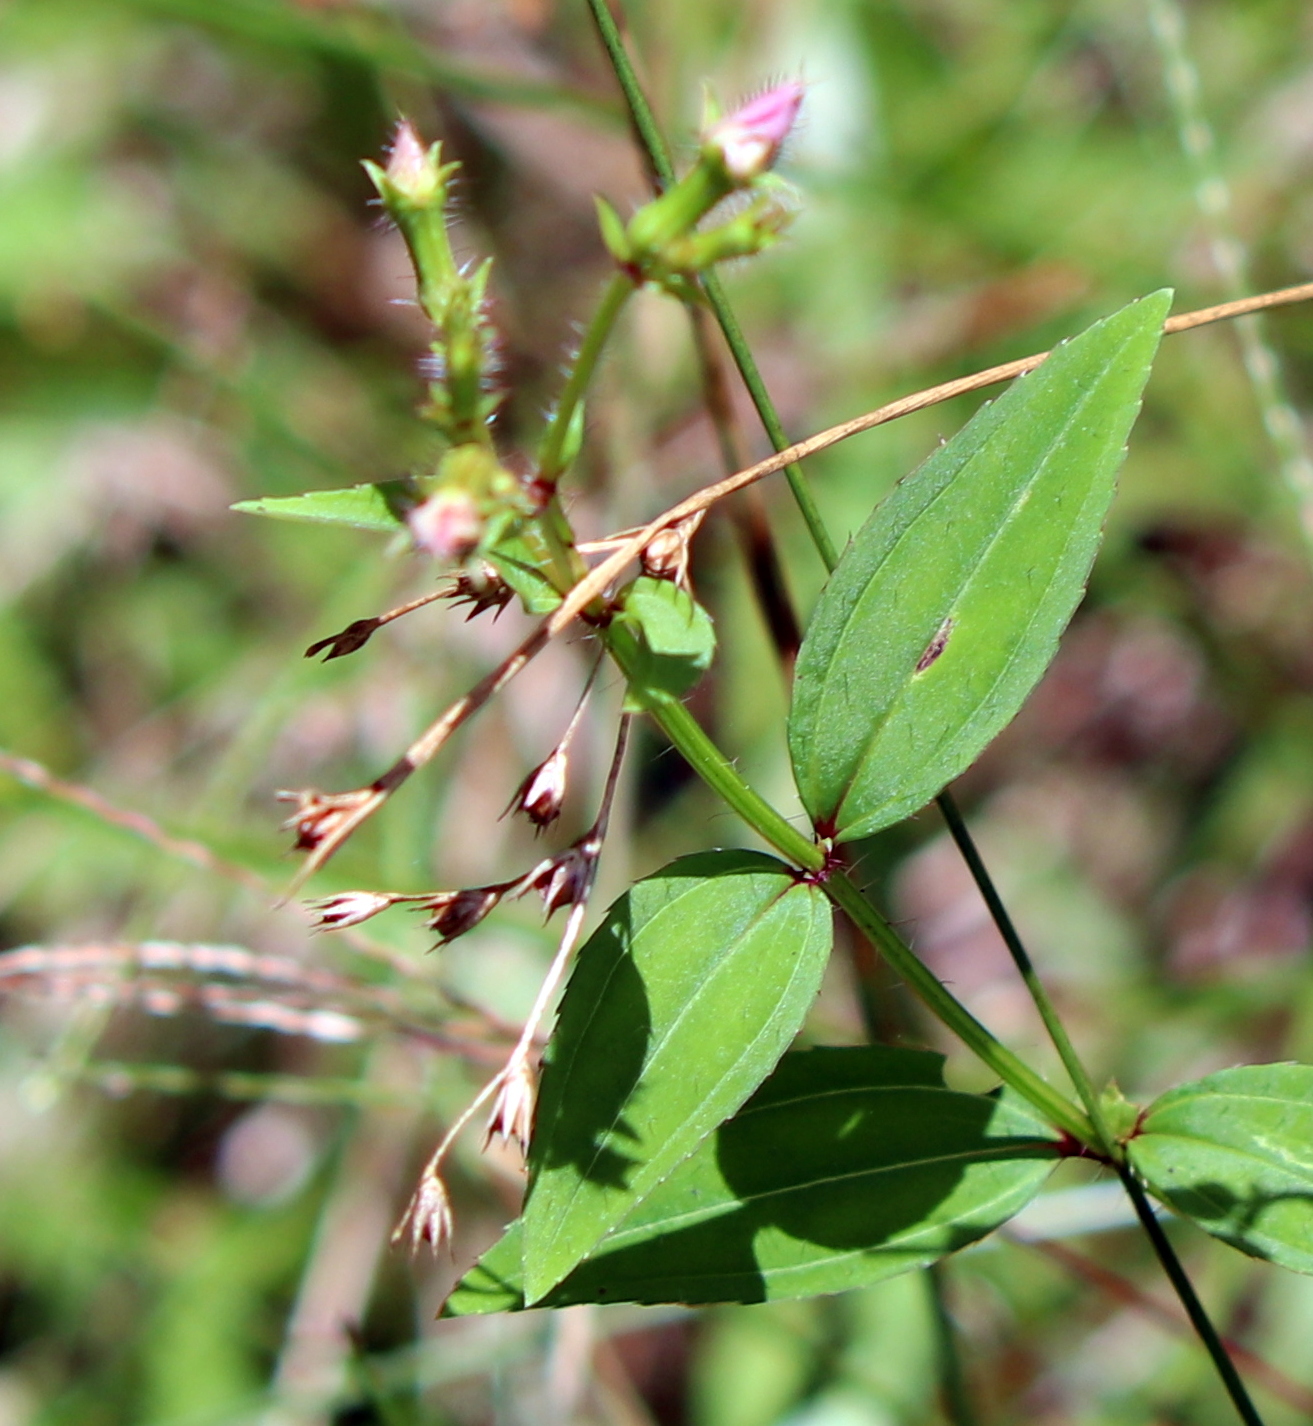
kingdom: Plantae
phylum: Tracheophyta
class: Magnoliopsida
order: Myrtales
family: Melastomataceae
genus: Rhexia
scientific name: Rhexia virginica
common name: Common meadow beauty
